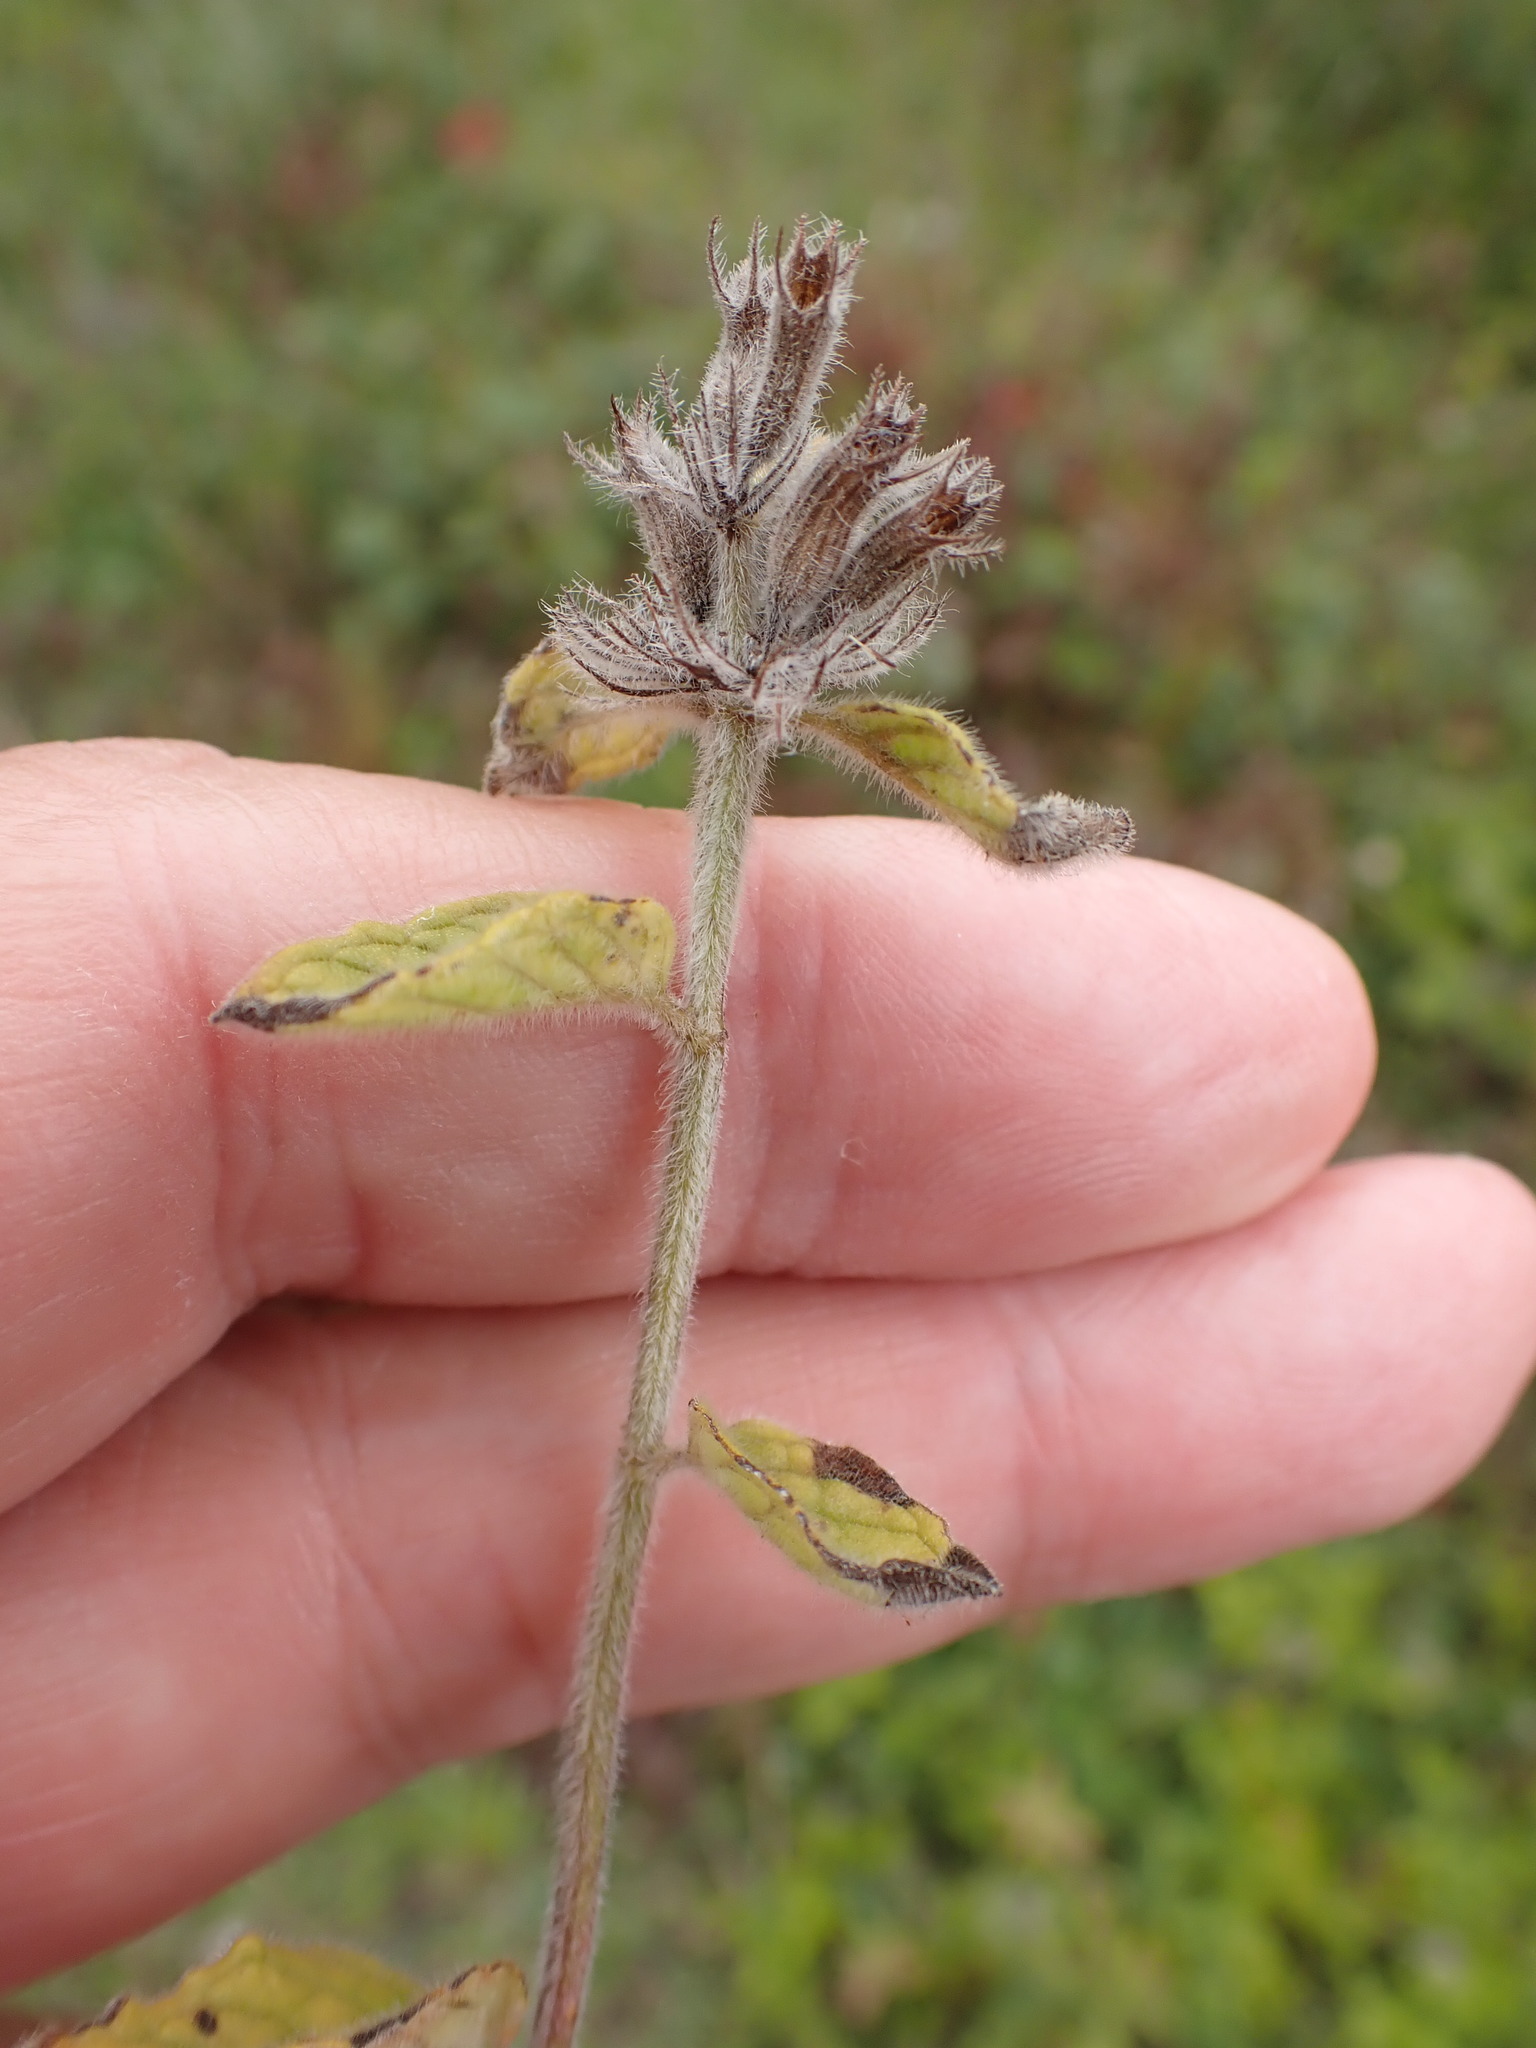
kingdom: Plantae
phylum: Tracheophyta
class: Magnoliopsida
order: Lamiales
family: Lamiaceae
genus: Clinopodium
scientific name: Clinopodium vulgare
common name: Wild basil
